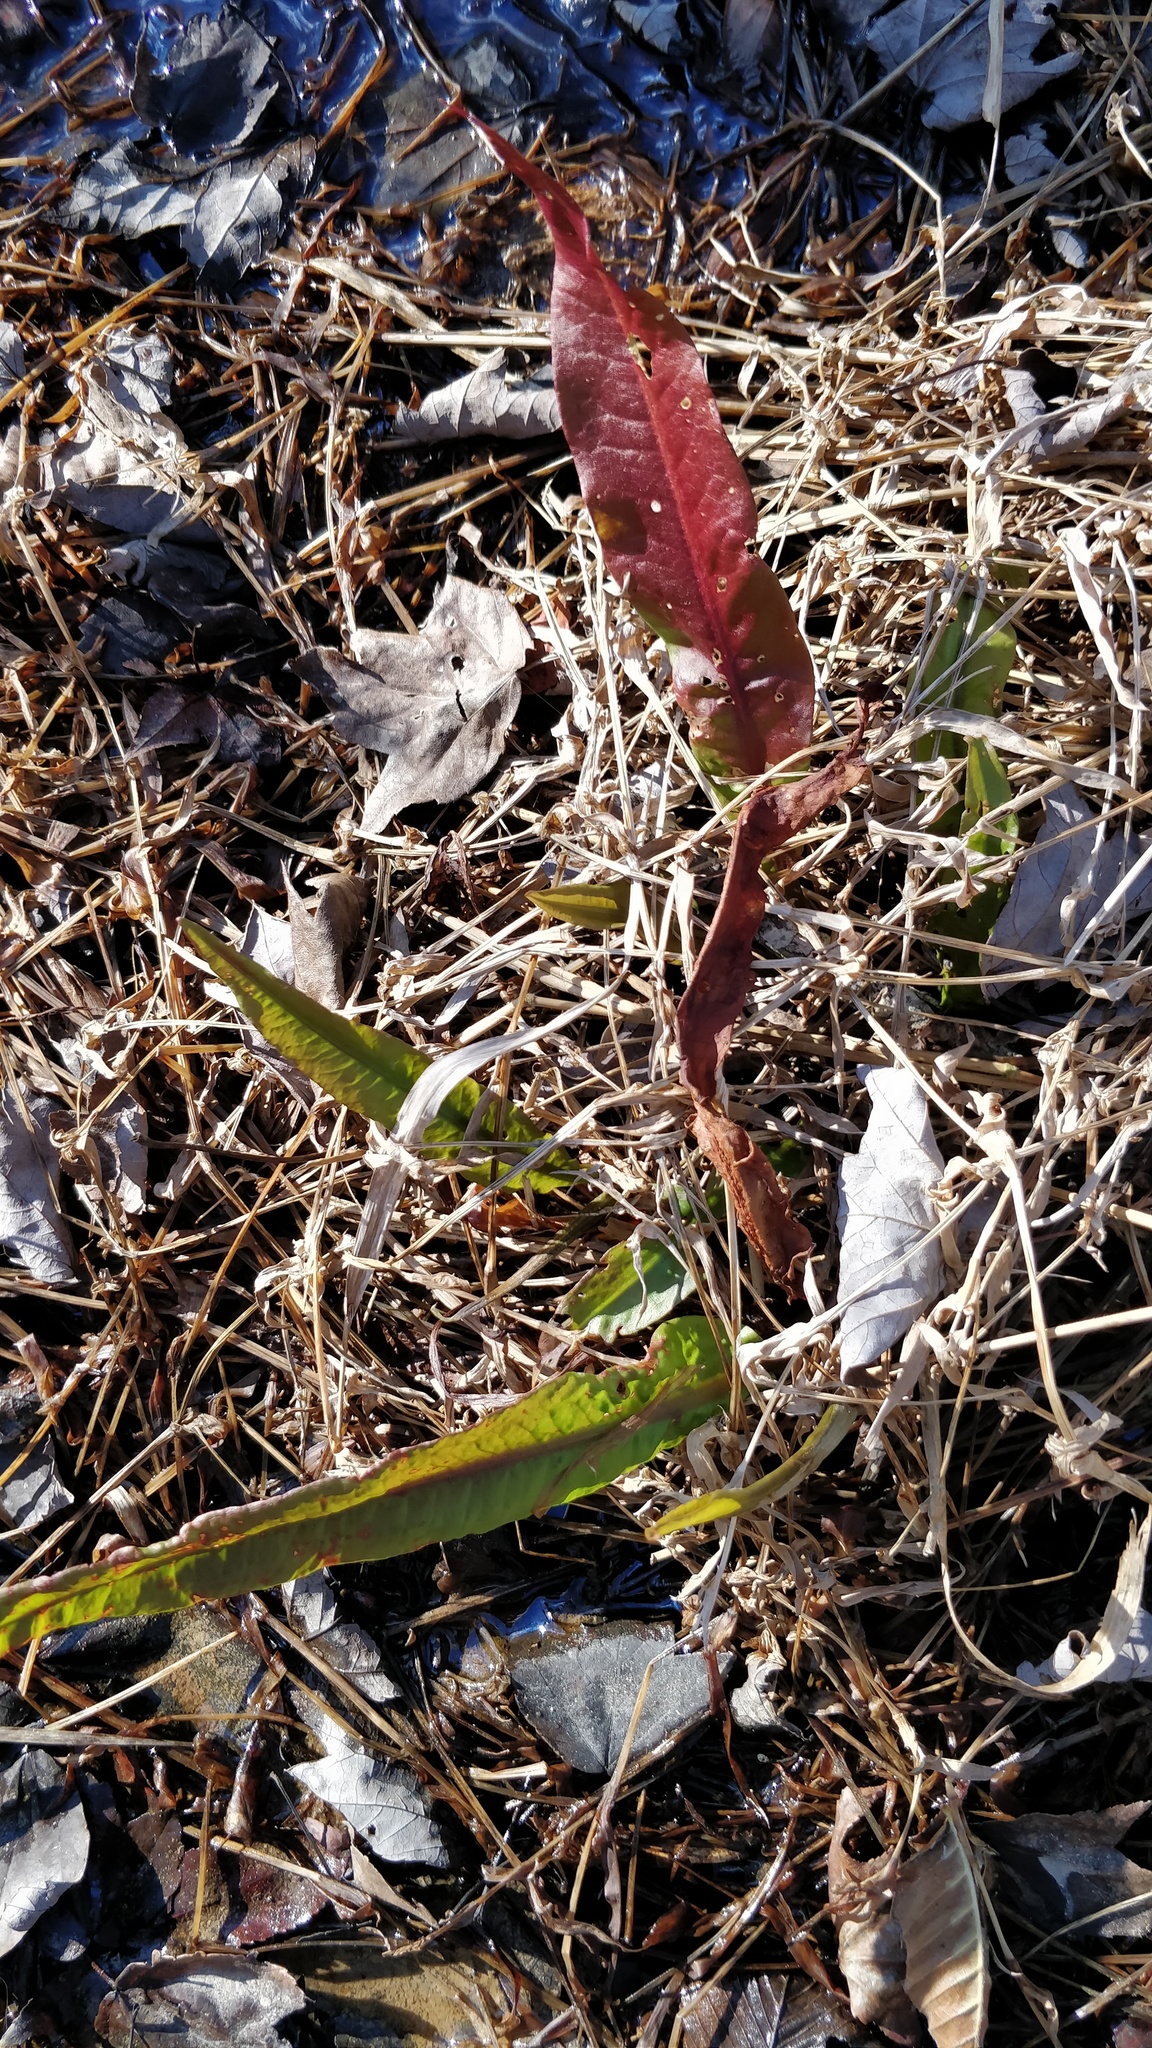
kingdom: Plantae
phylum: Tracheophyta
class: Magnoliopsida
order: Caryophyllales
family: Polygonaceae
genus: Rumex
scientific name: Rumex crispus
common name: Curled dock
